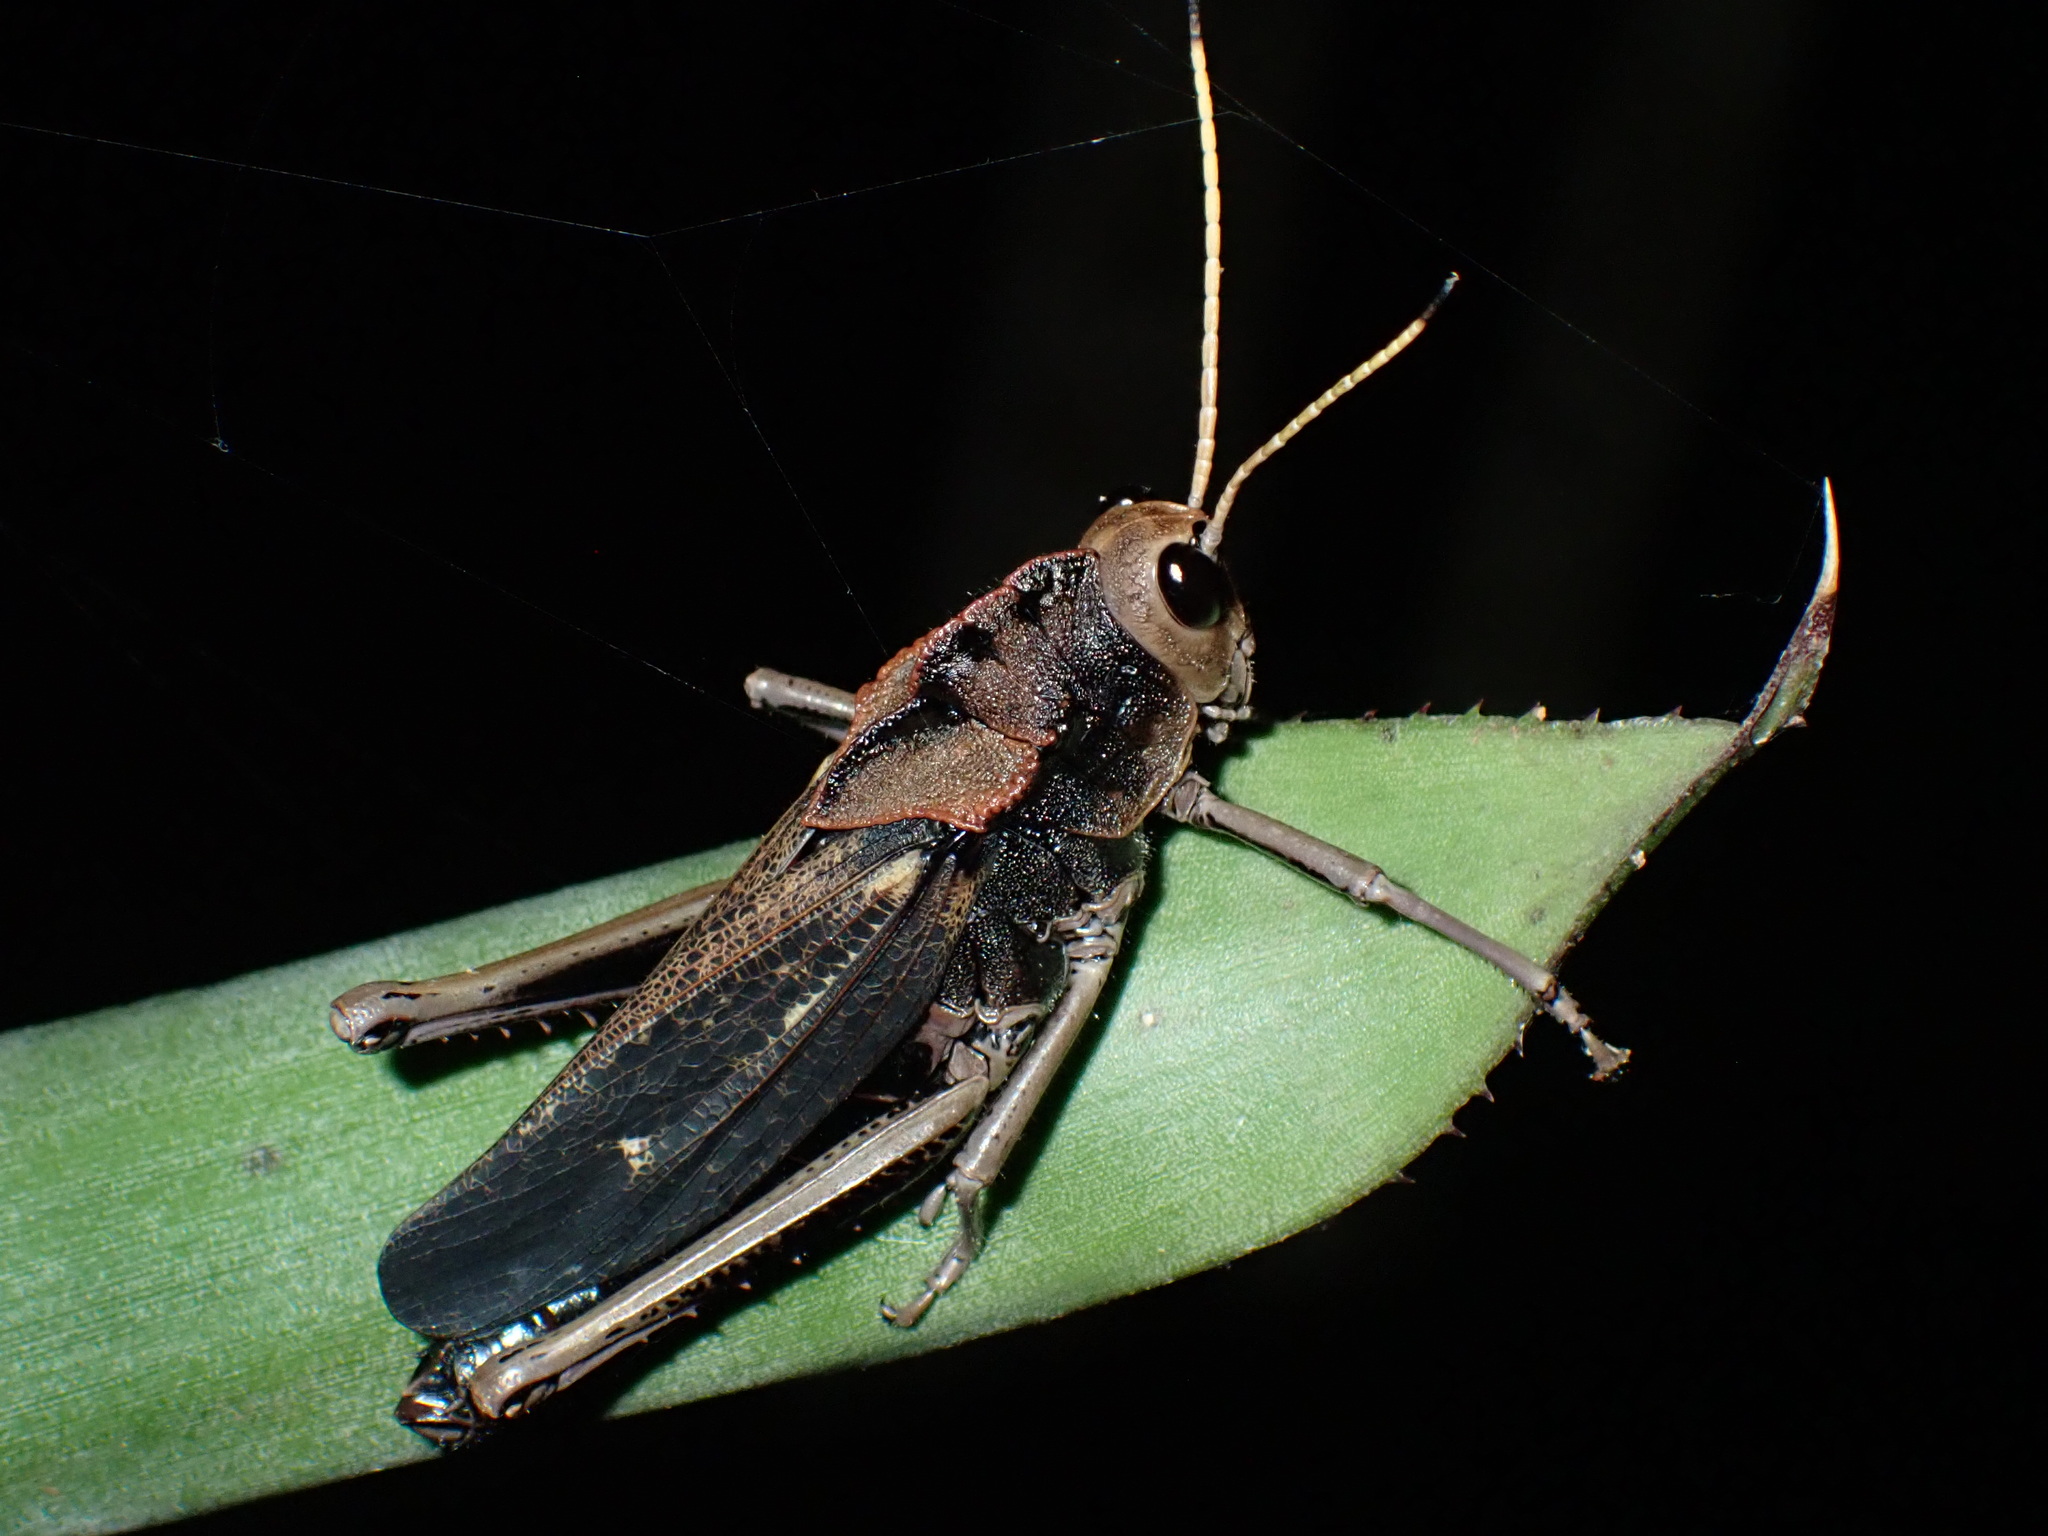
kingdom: Animalia
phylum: Arthropoda
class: Insecta
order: Orthoptera
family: Romaleidae
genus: Romalea
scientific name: Romalea
